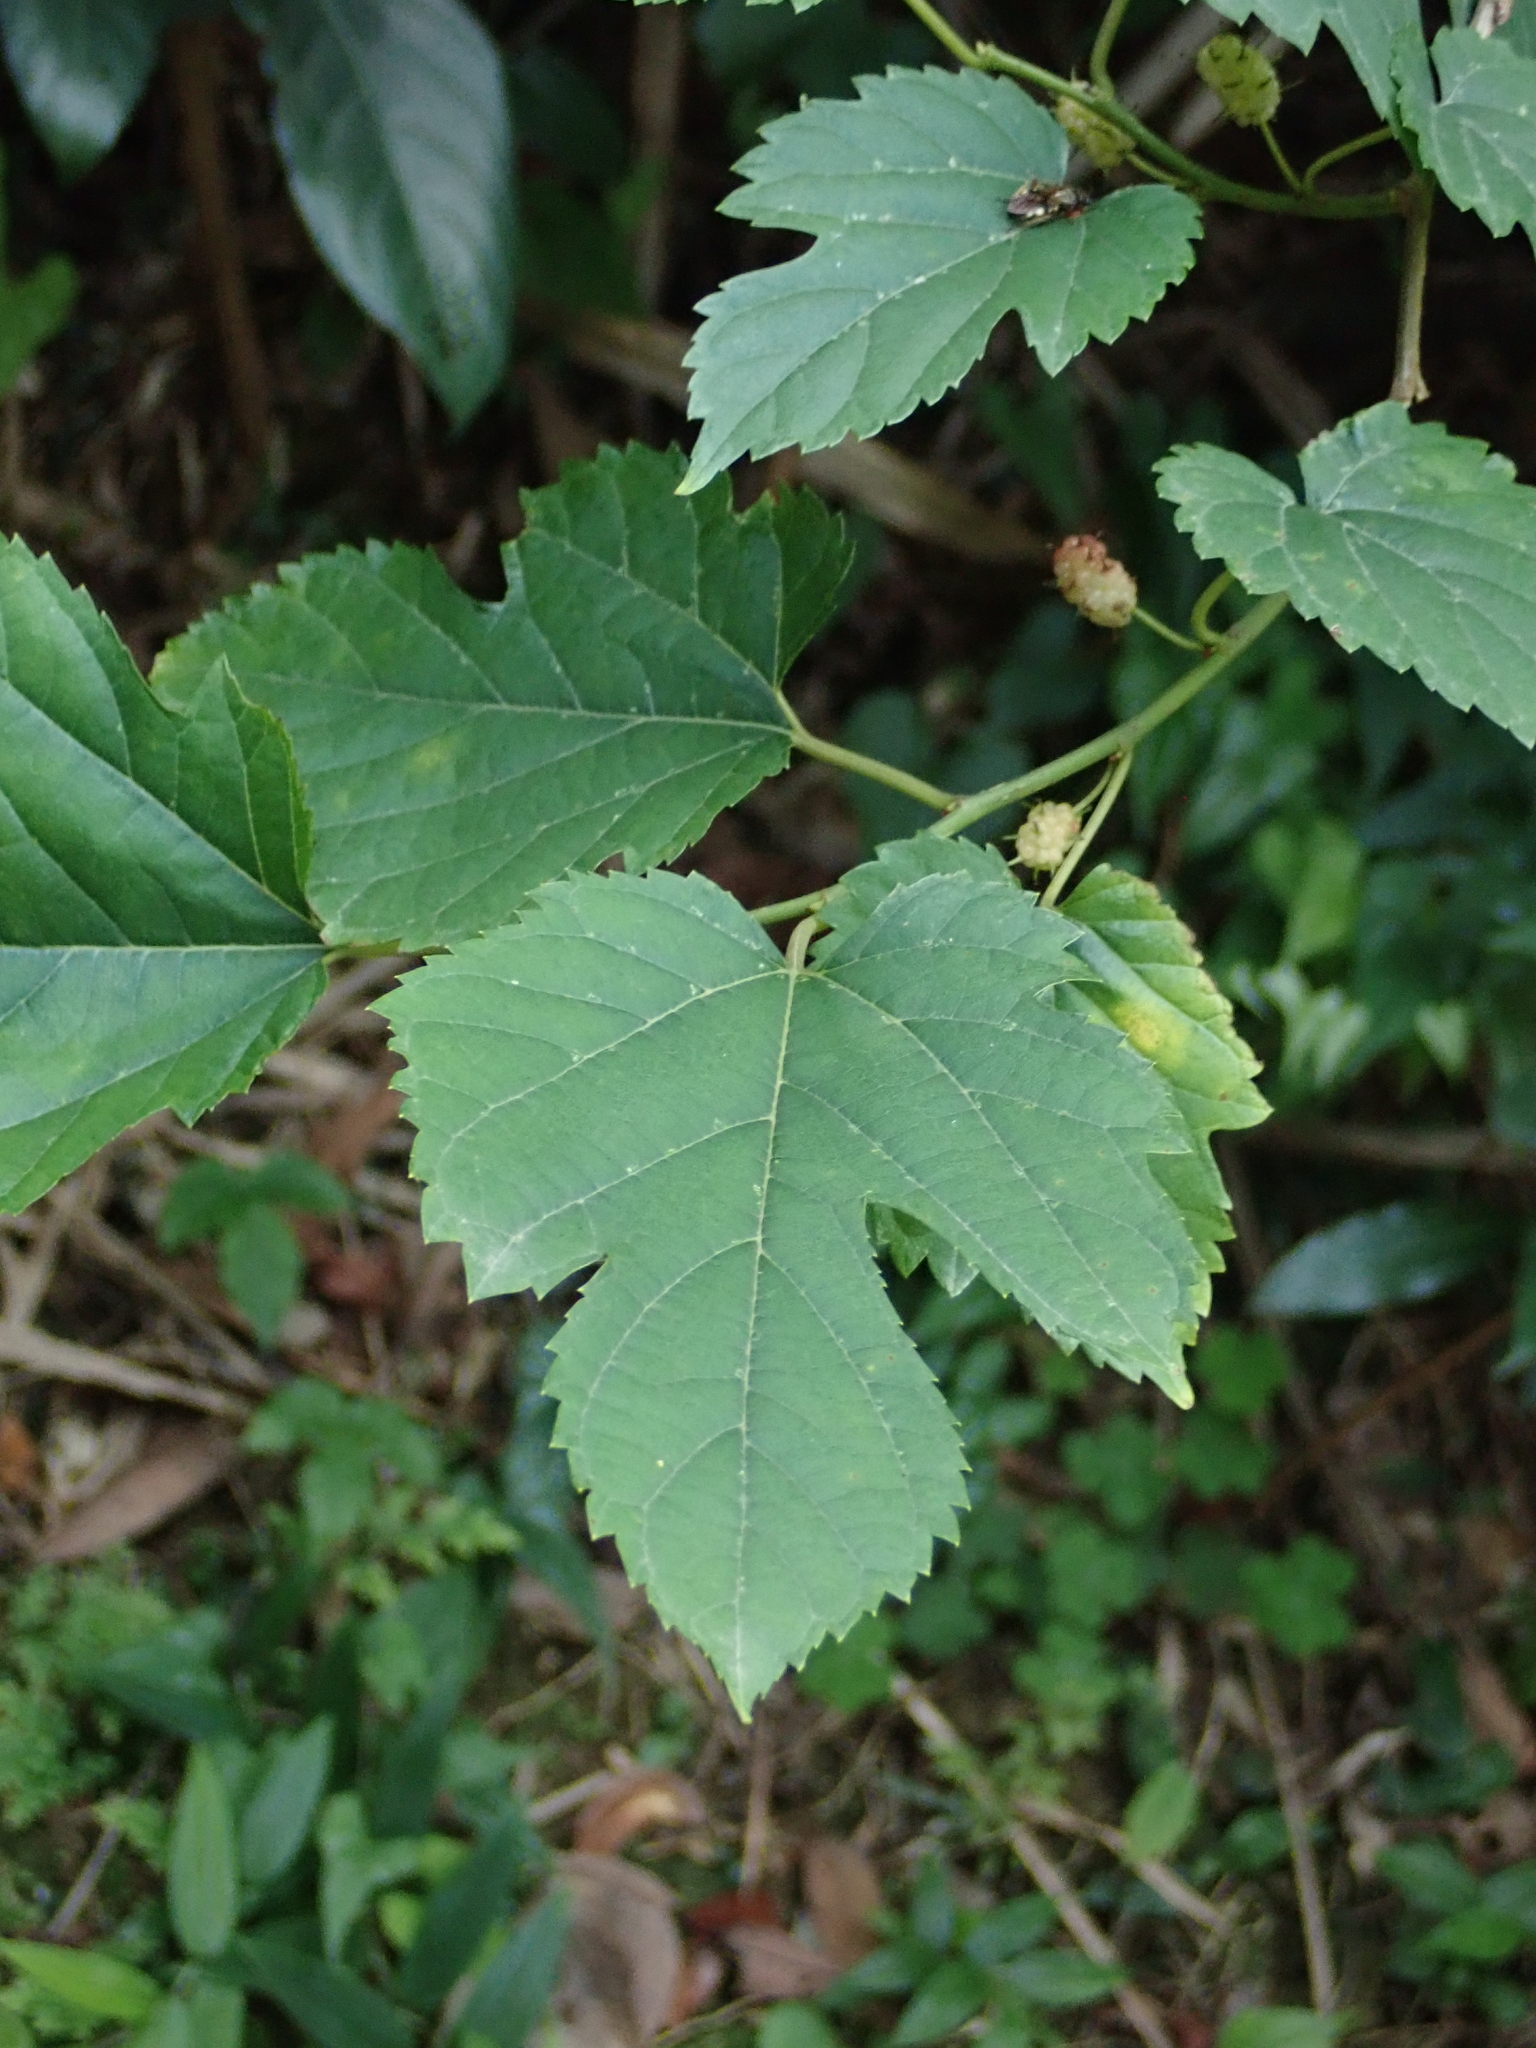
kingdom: Plantae
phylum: Tracheophyta
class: Magnoliopsida
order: Rosales
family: Moraceae
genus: Morus
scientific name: Morus indica
